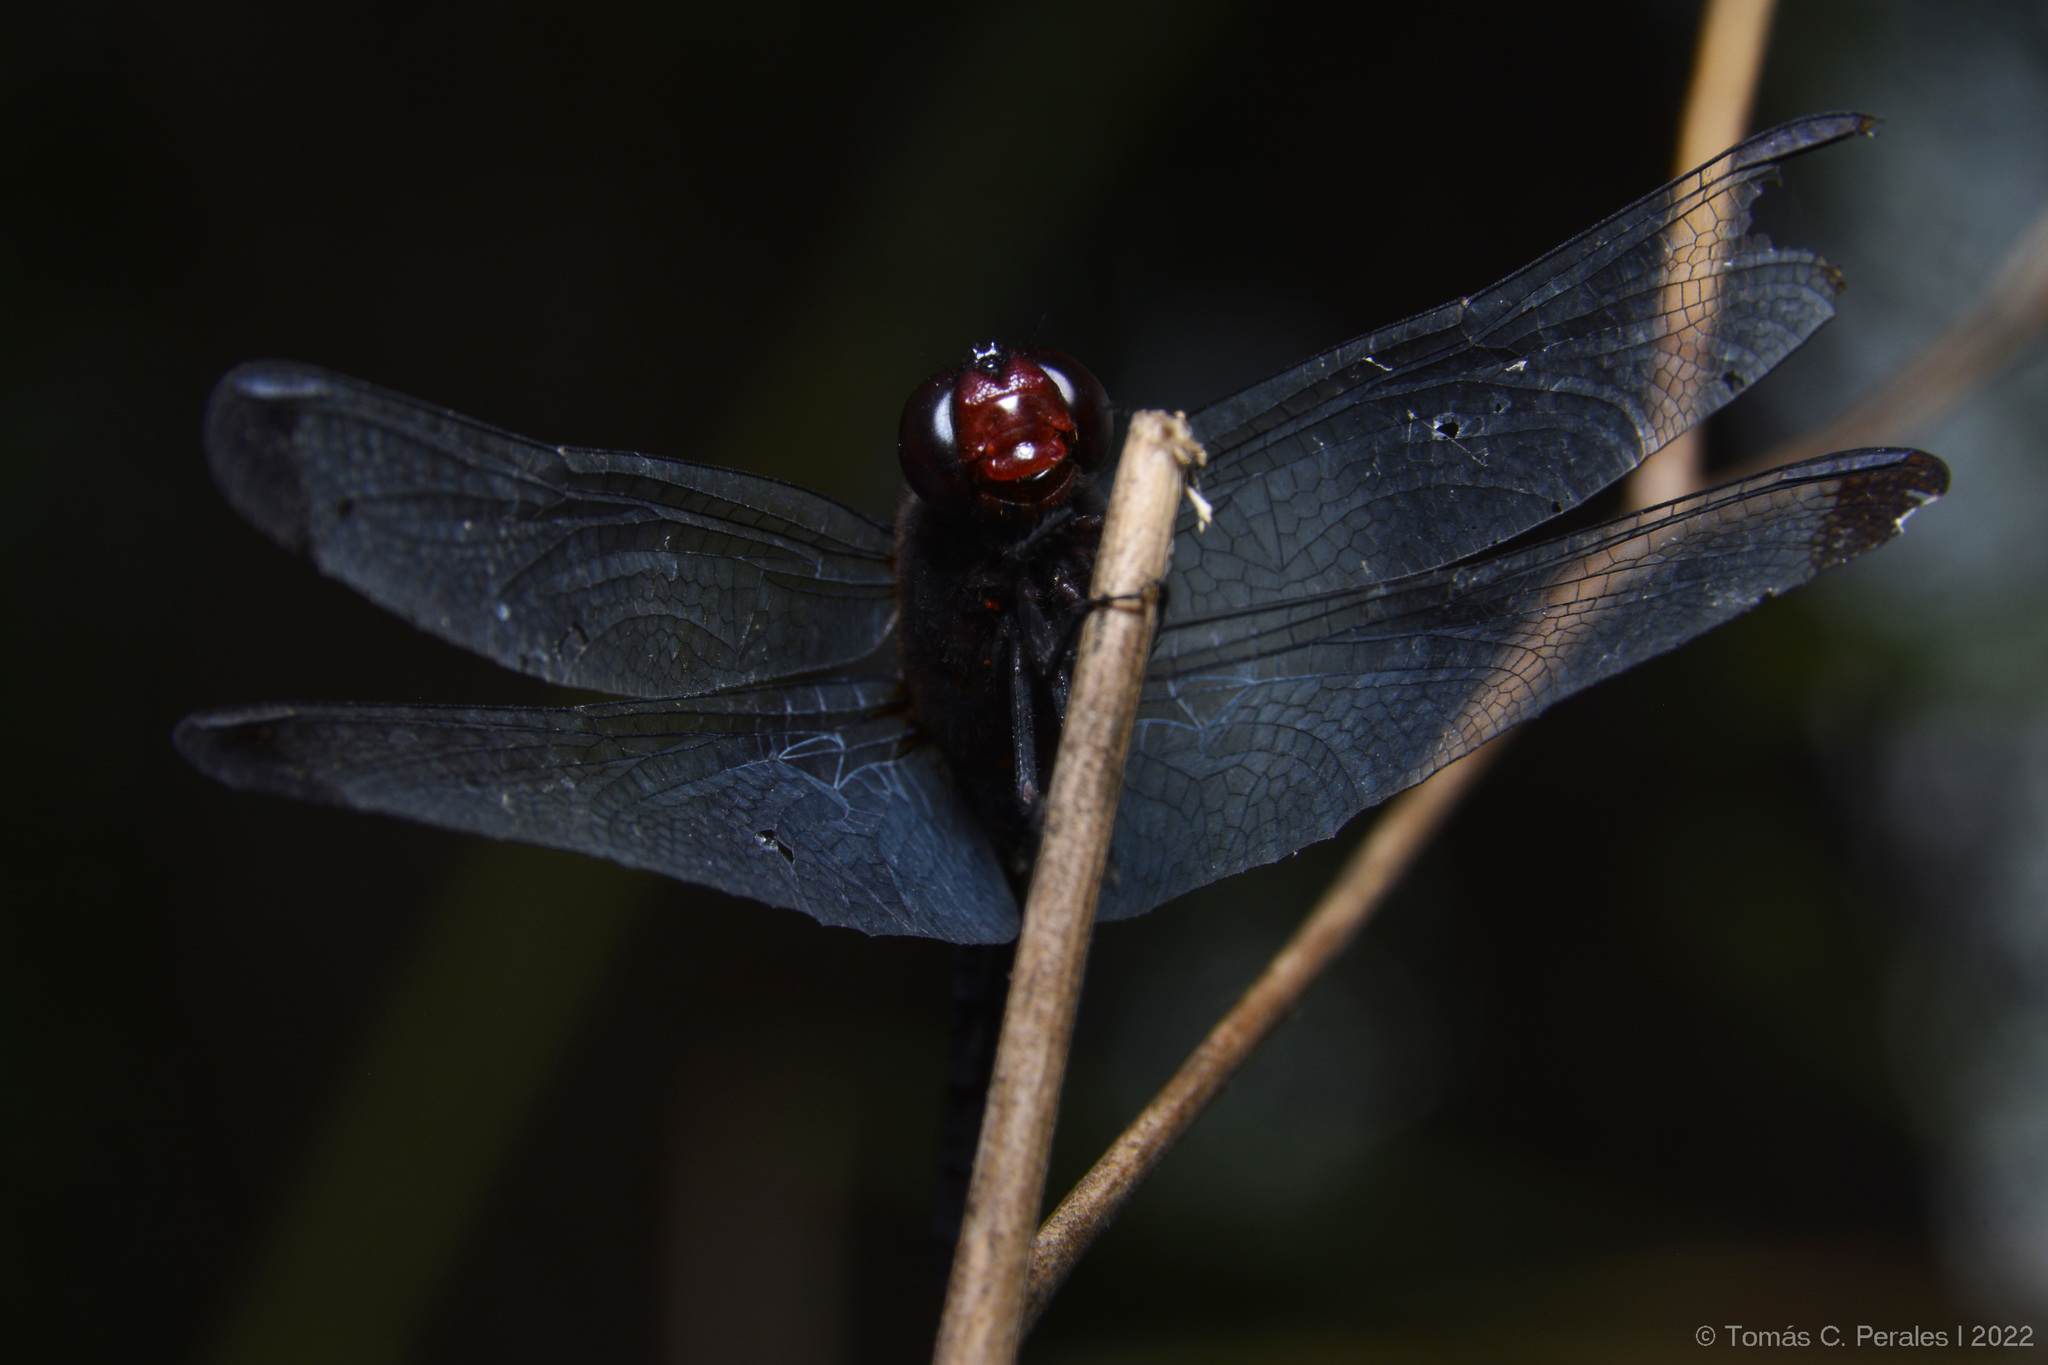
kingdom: Animalia
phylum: Arthropoda
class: Insecta
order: Odonata
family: Libellulidae
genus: Erythrodiplax
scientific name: Erythrodiplax atroterminata
